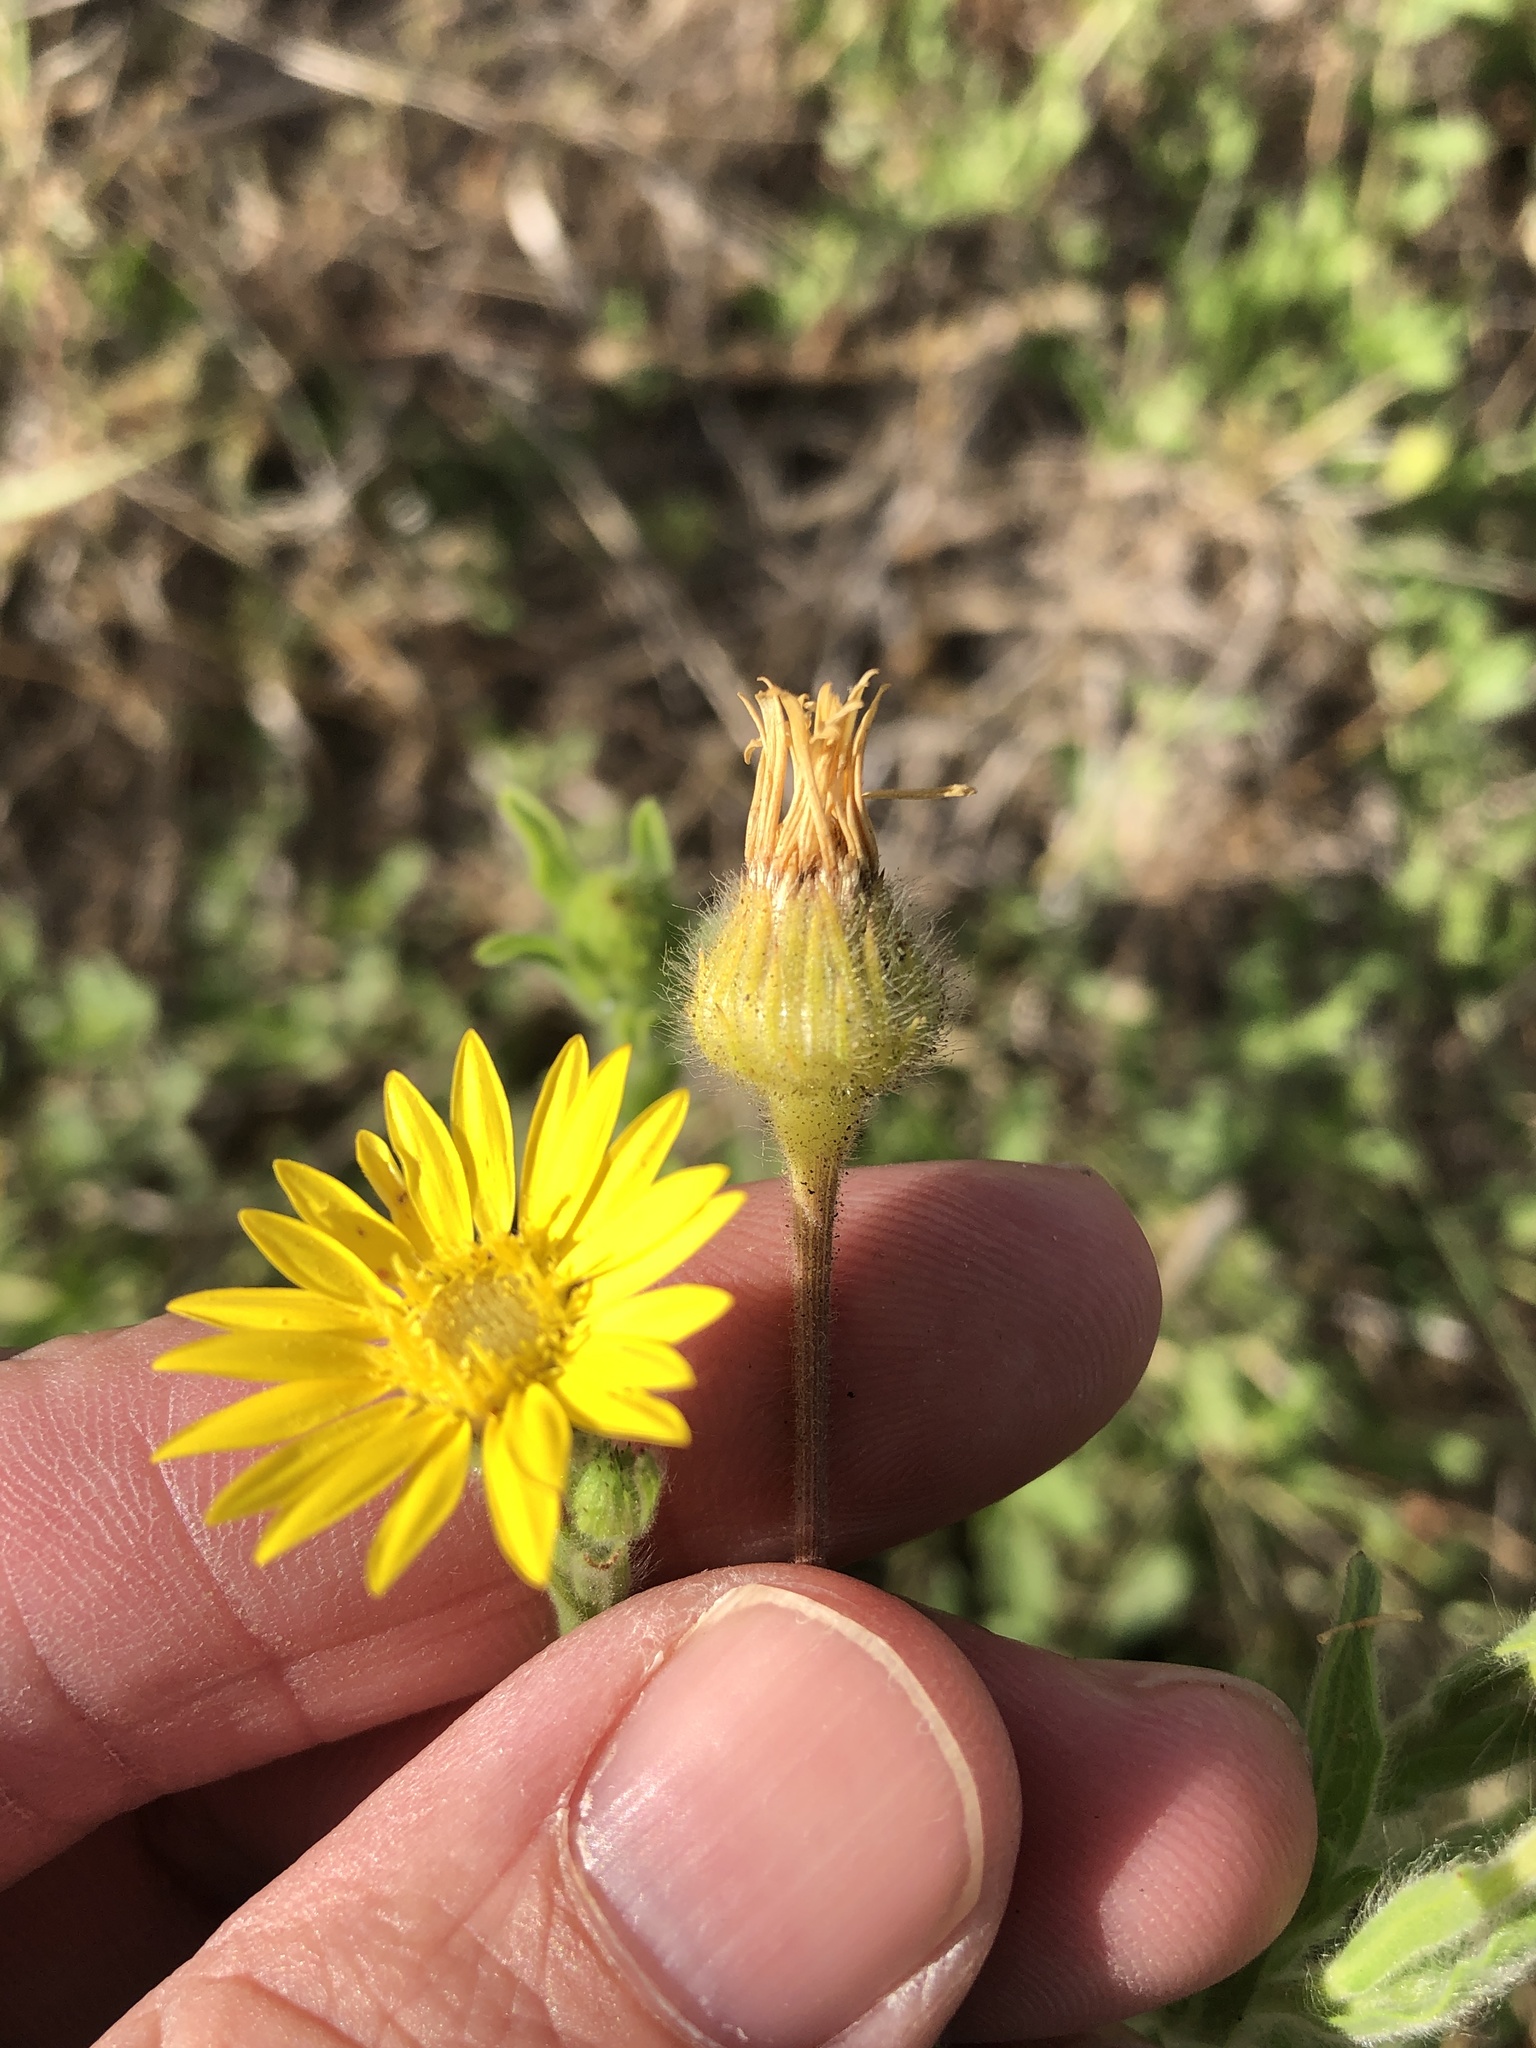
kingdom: Plantae
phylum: Tracheophyta
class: Magnoliopsida
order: Asterales
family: Asteraceae
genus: Bradburia
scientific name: Bradburia pilosa
